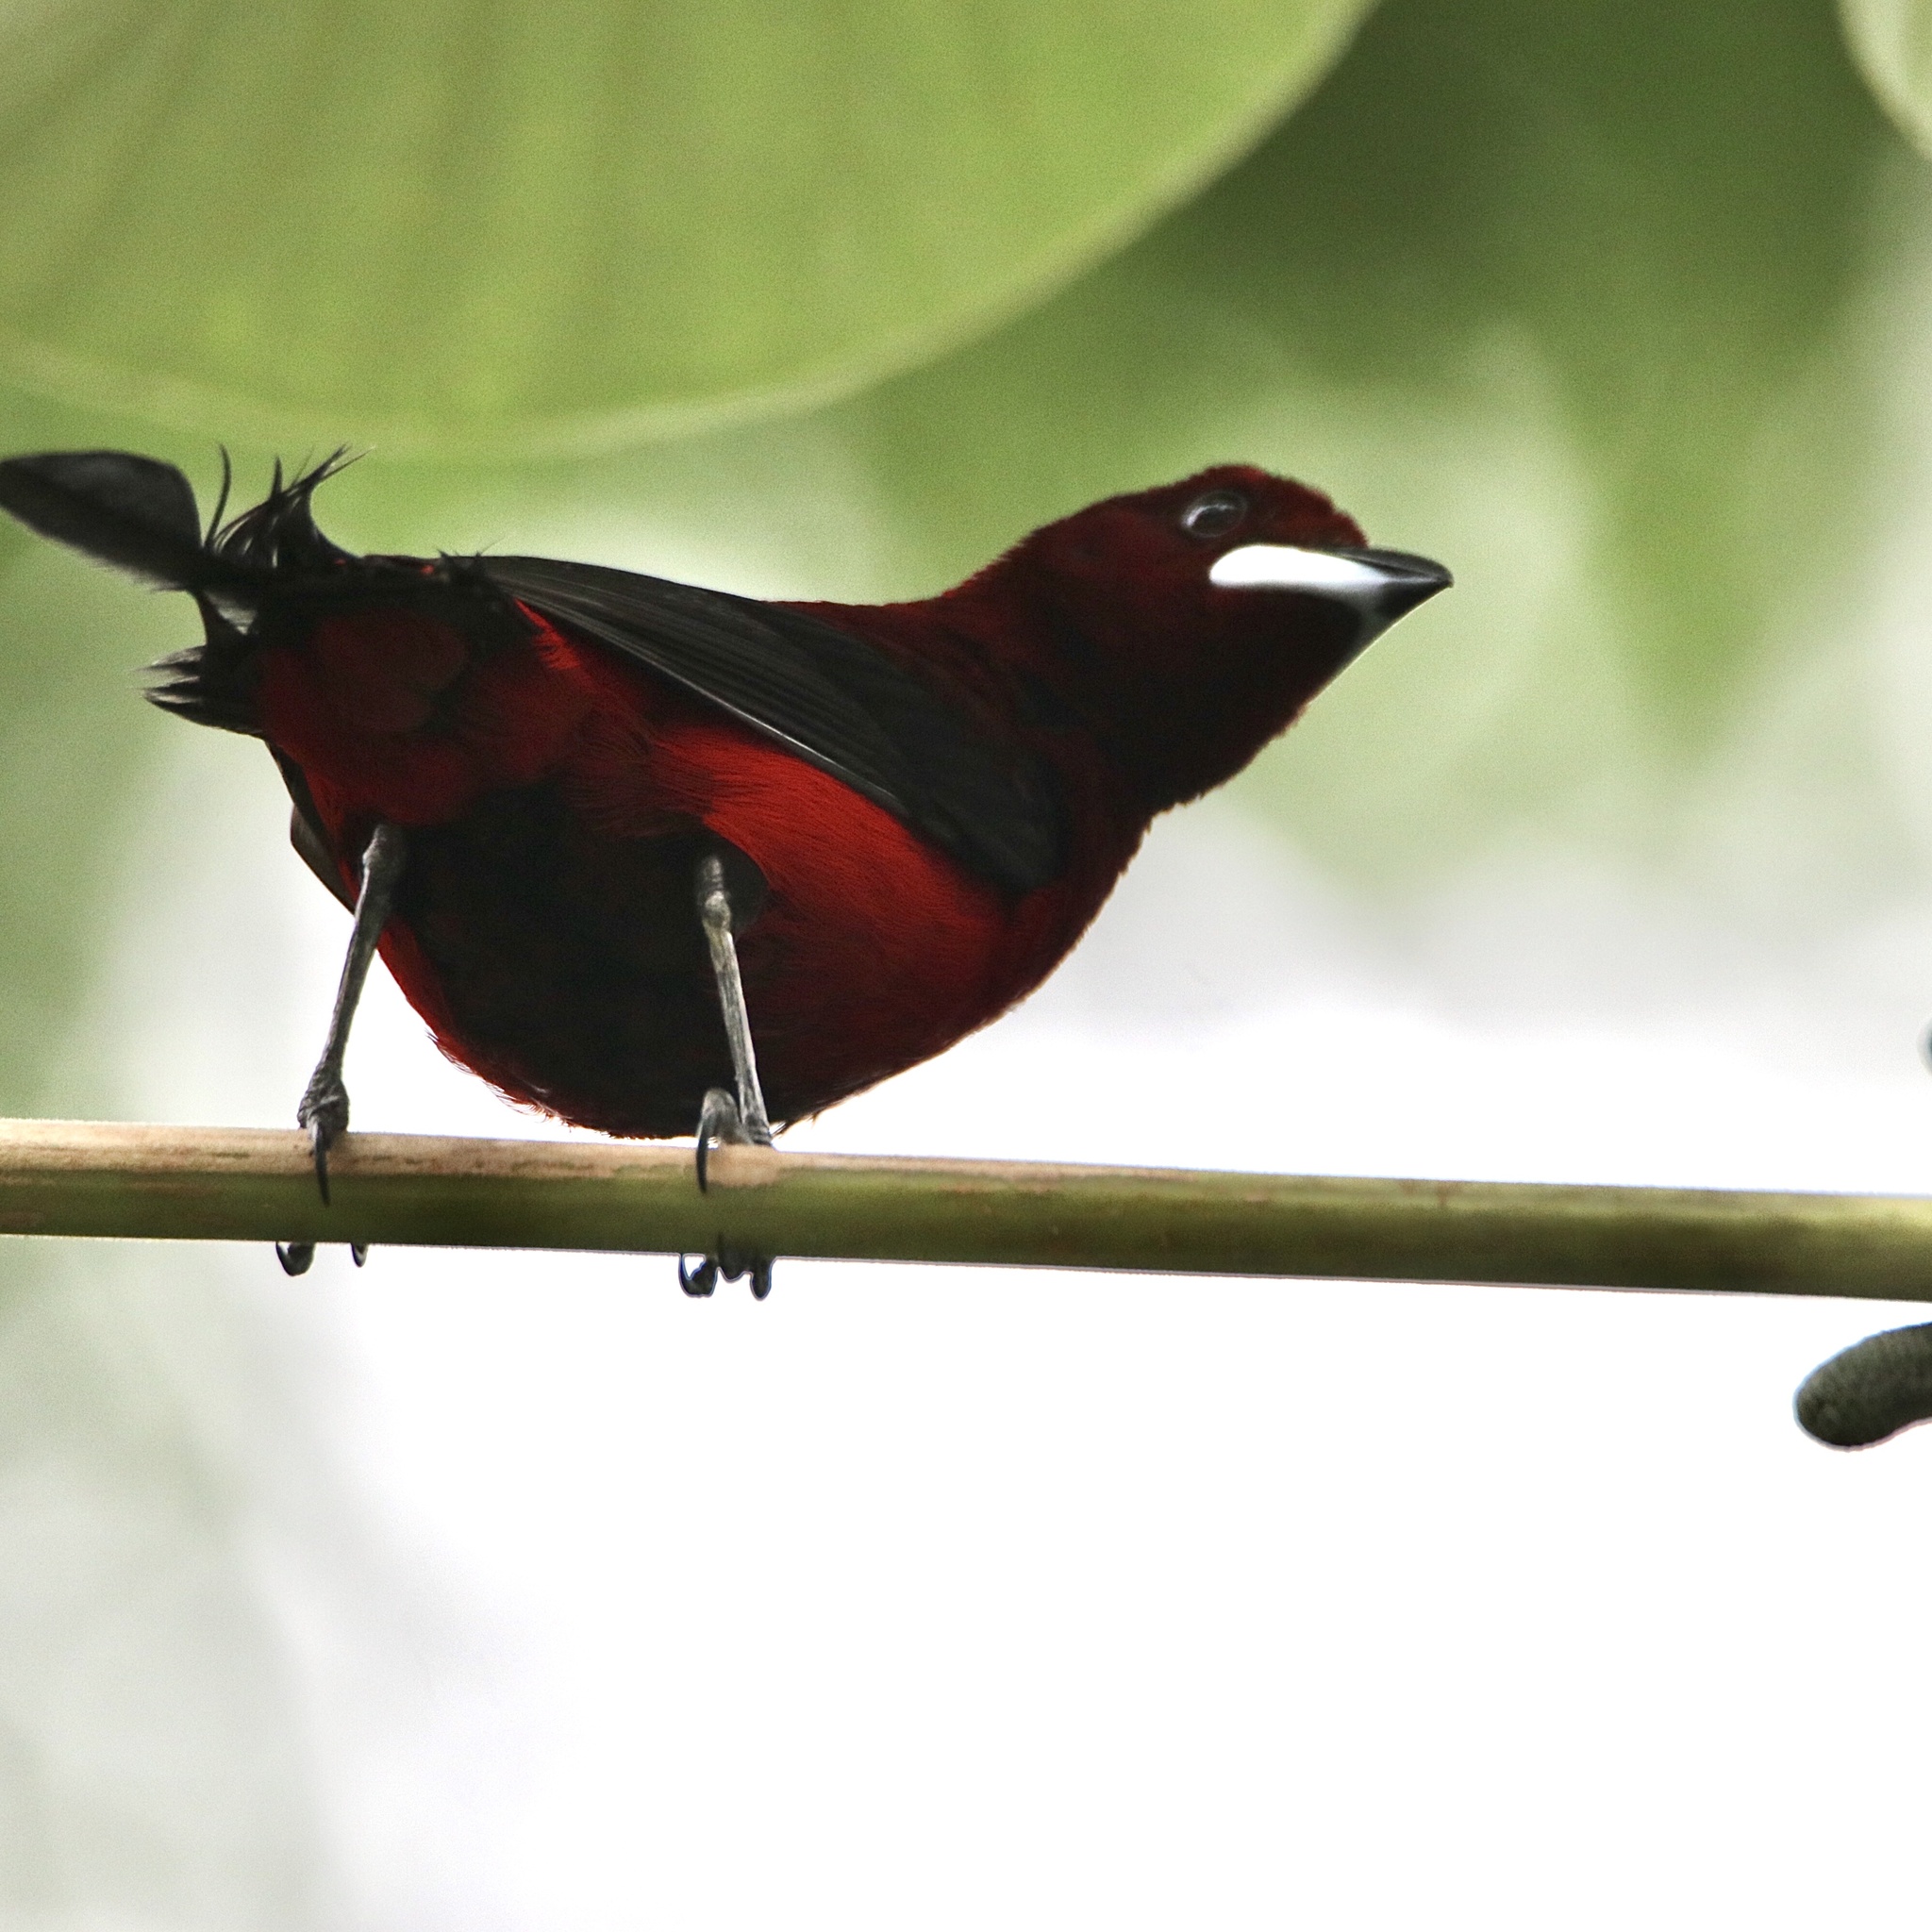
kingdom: Animalia
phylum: Chordata
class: Aves
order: Passeriformes
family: Thraupidae
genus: Ramphocelus
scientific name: Ramphocelus dimidiatus
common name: Crimson-backed tanager
